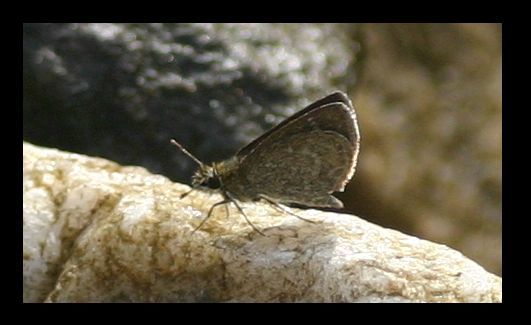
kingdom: Animalia
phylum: Arthropoda
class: Insecta
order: Lepidoptera
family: Hesperiidae
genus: Aeromachus
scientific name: Aeromachus pygmaeus
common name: Pygmy scrub hopper
